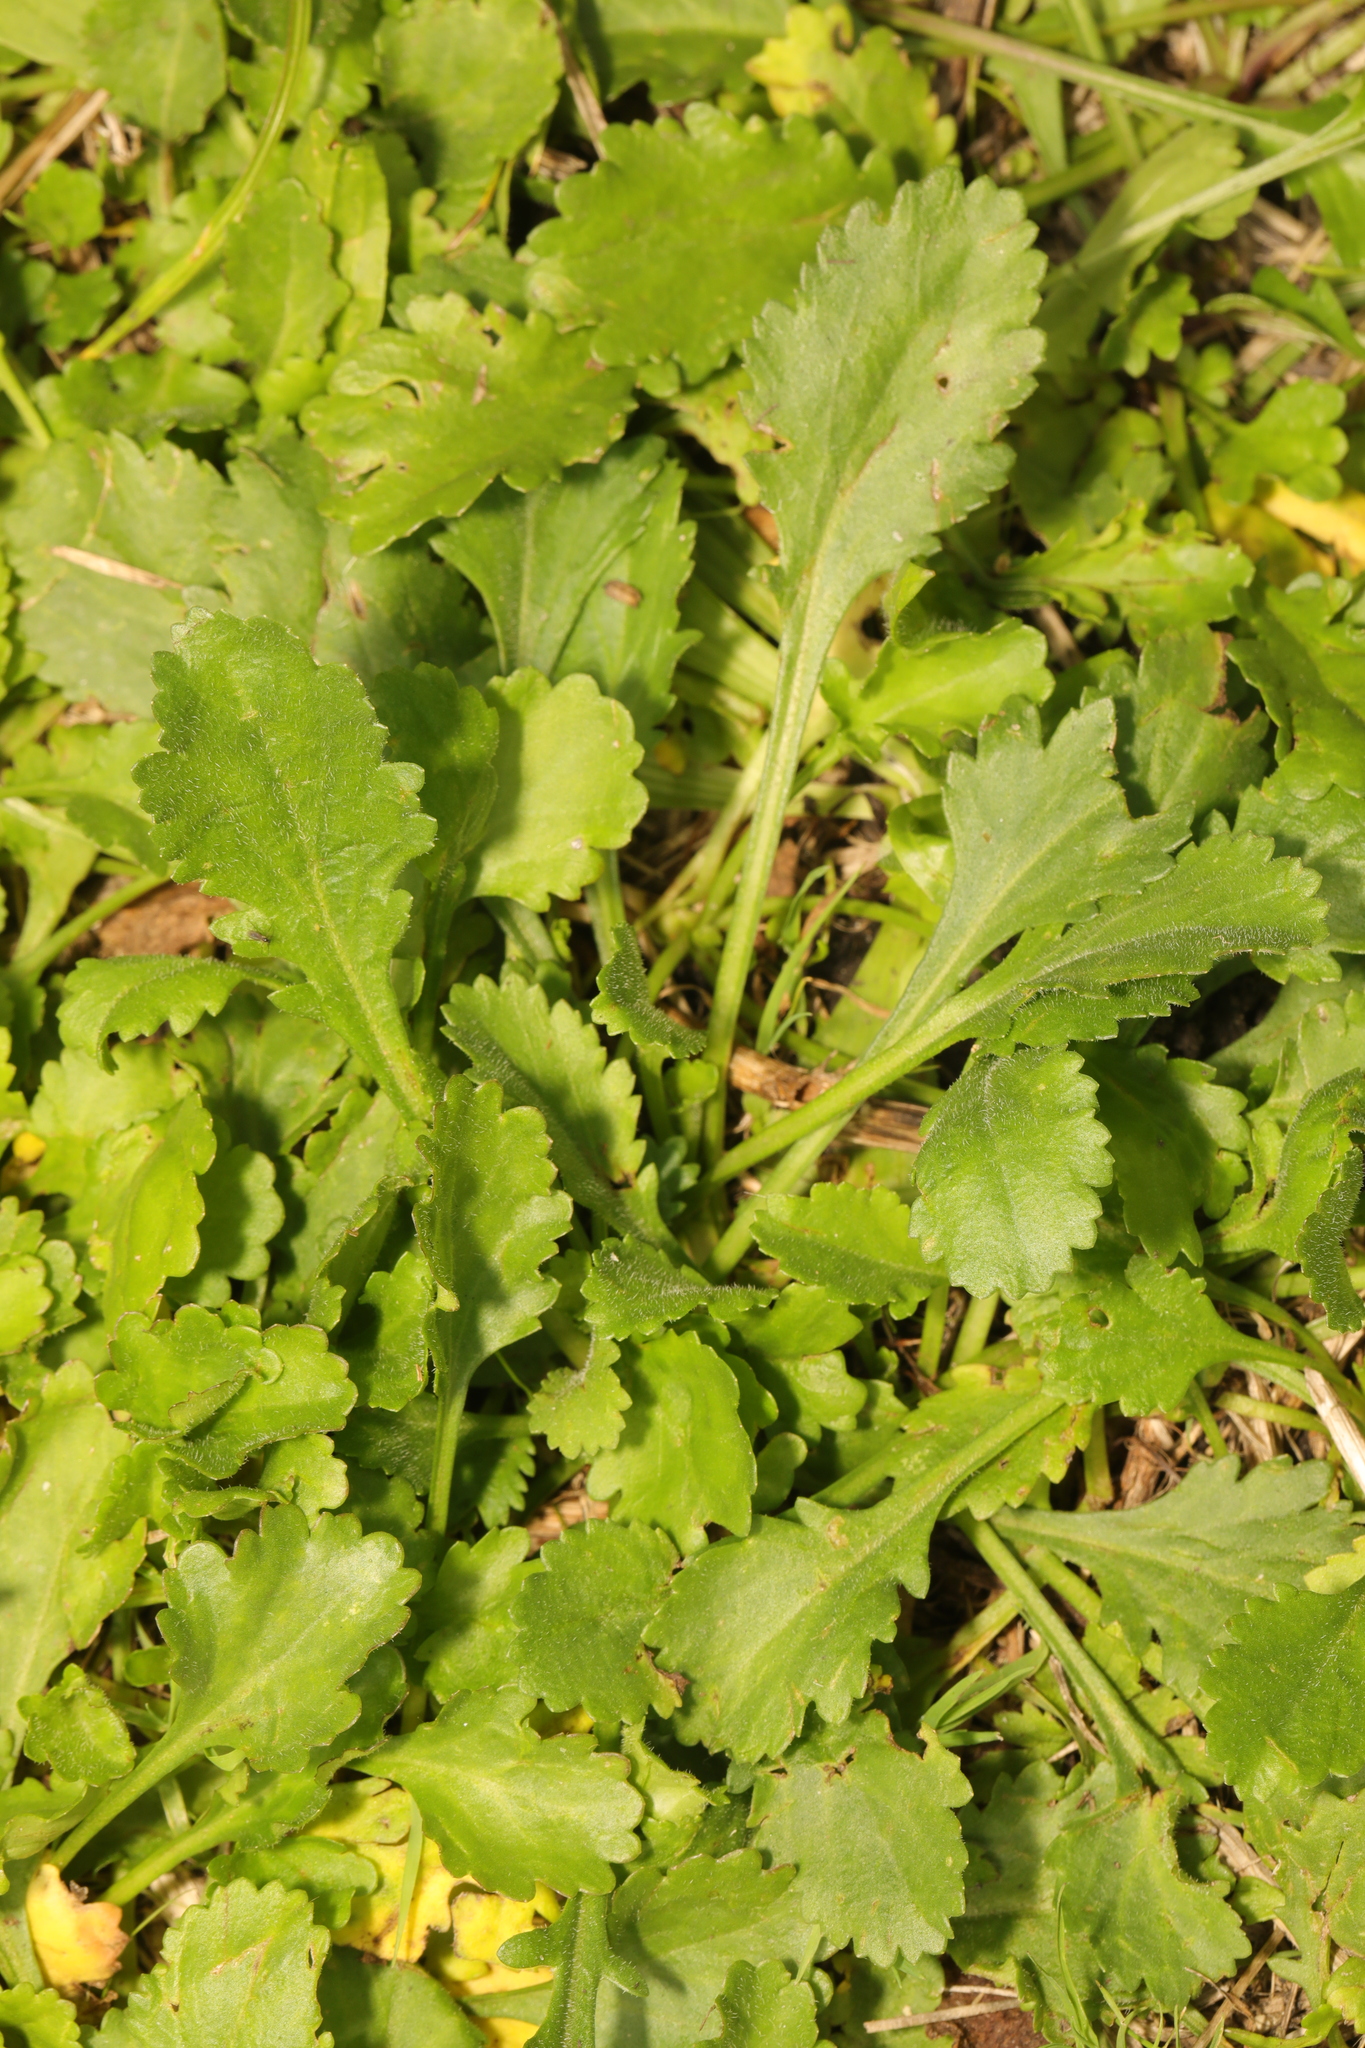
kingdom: Plantae
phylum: Tracheophyta
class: Magnoliopsida
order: Asterales
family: Asteraceae
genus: Leucanthemum
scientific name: Leucanthemum vulgare
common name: Oxeye daisy
